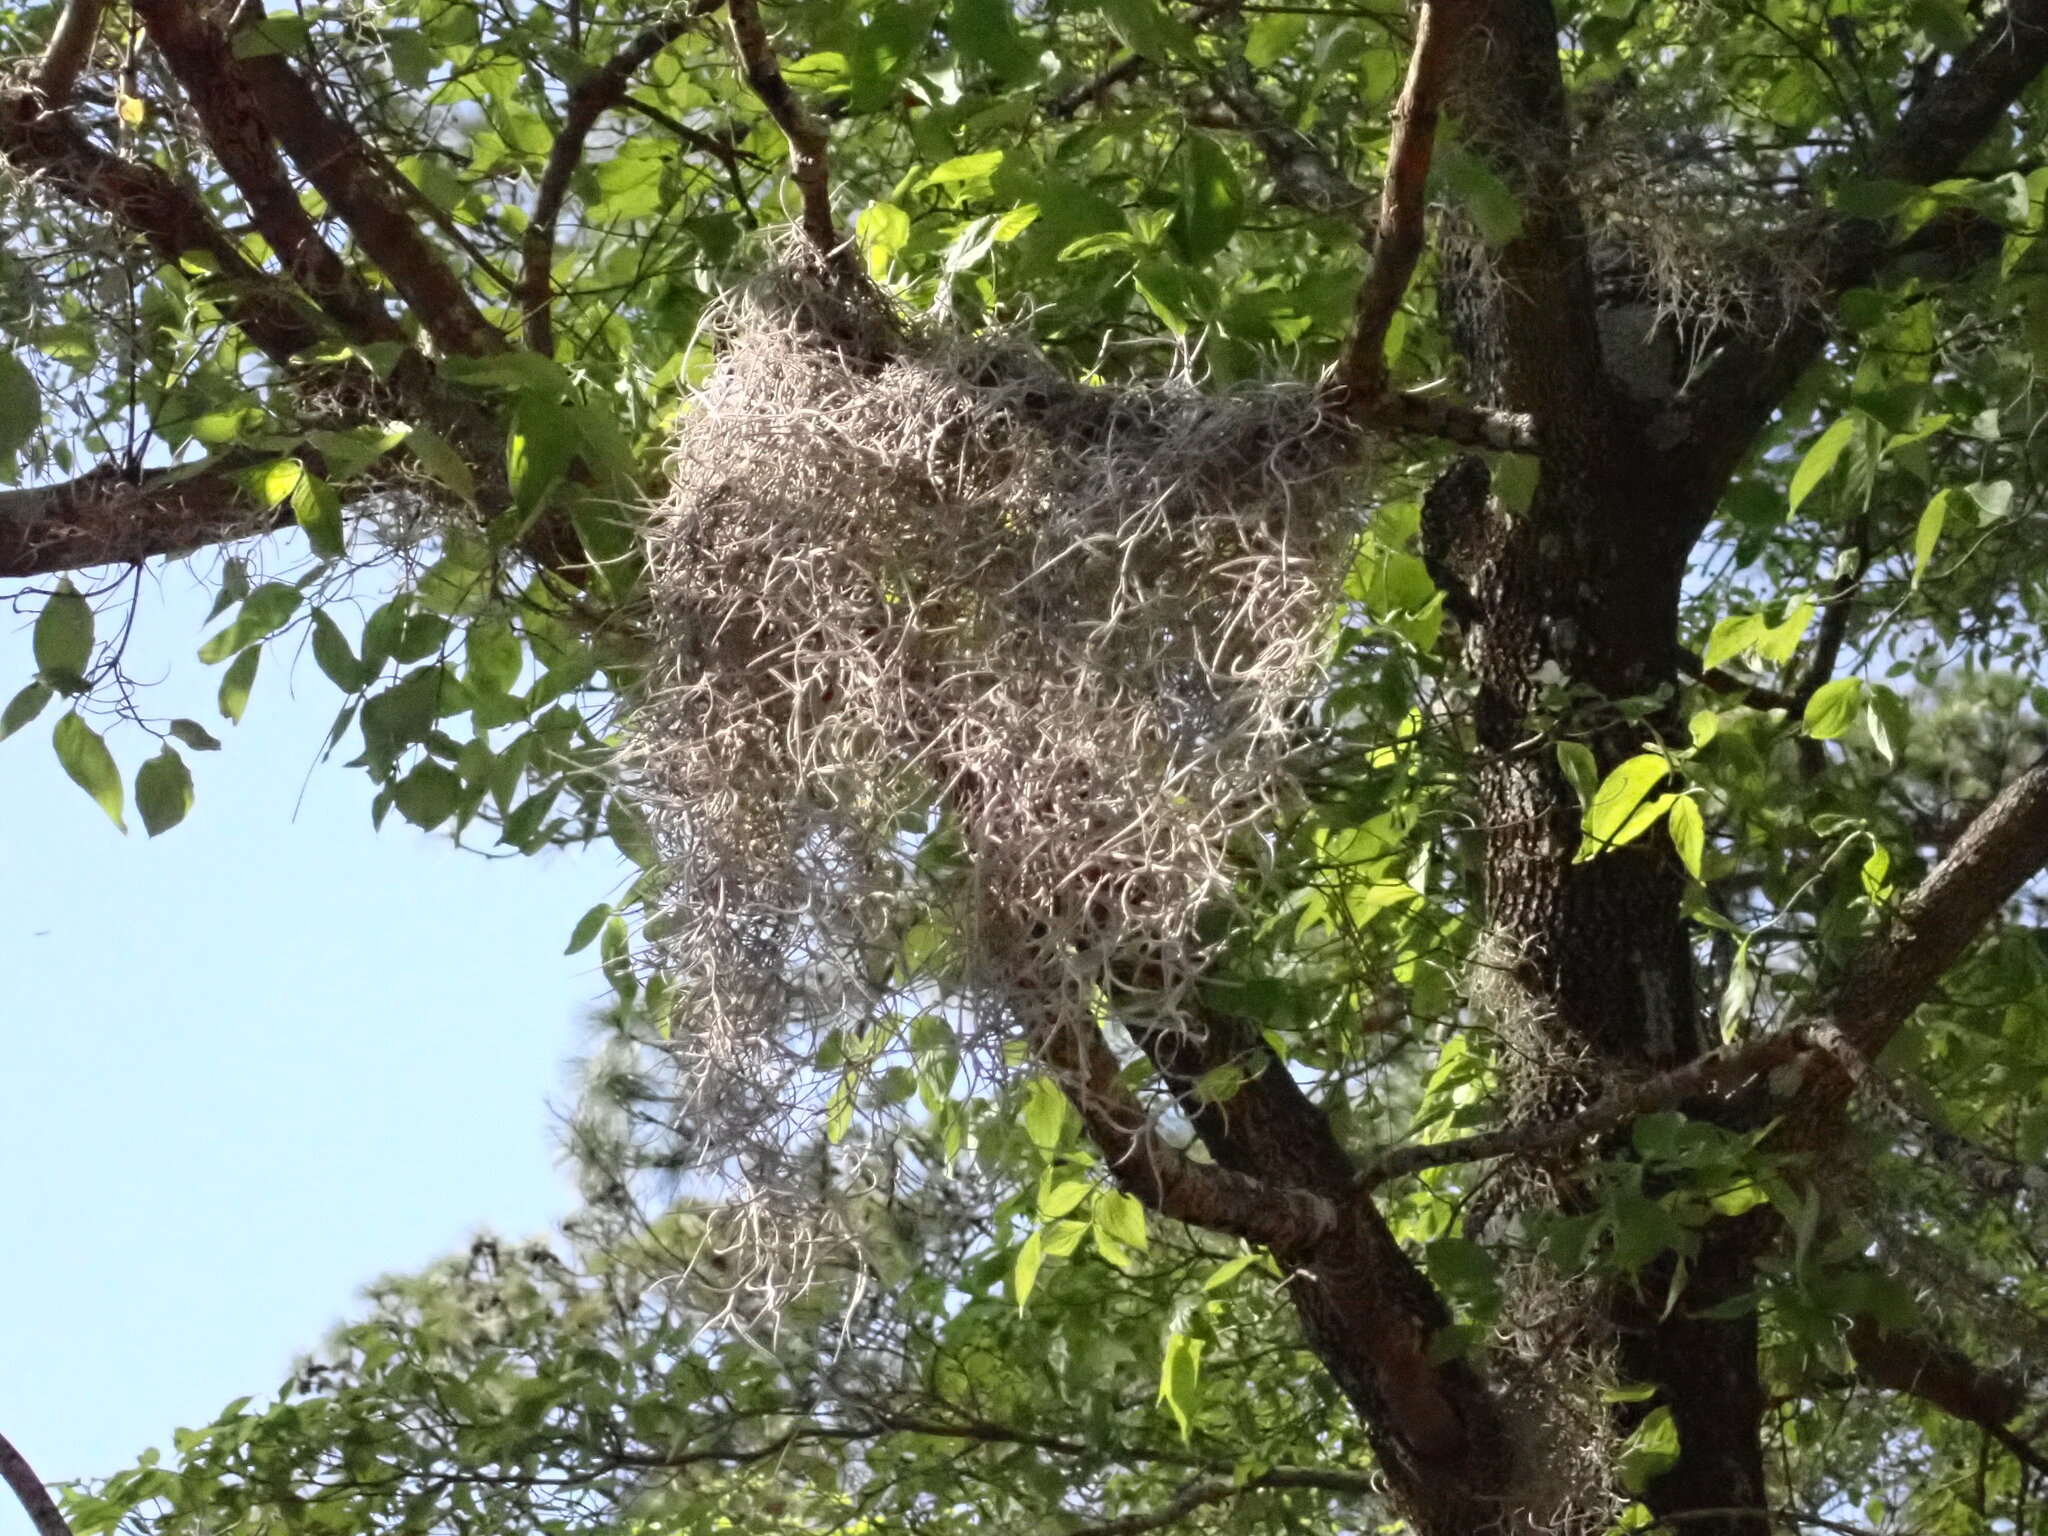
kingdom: Plantae
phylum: Tracheophyta
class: Liliopsida
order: Poales
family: Bromeliaceae
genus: Tillandsia
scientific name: Tillandsia usneoides
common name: Spanish moss
